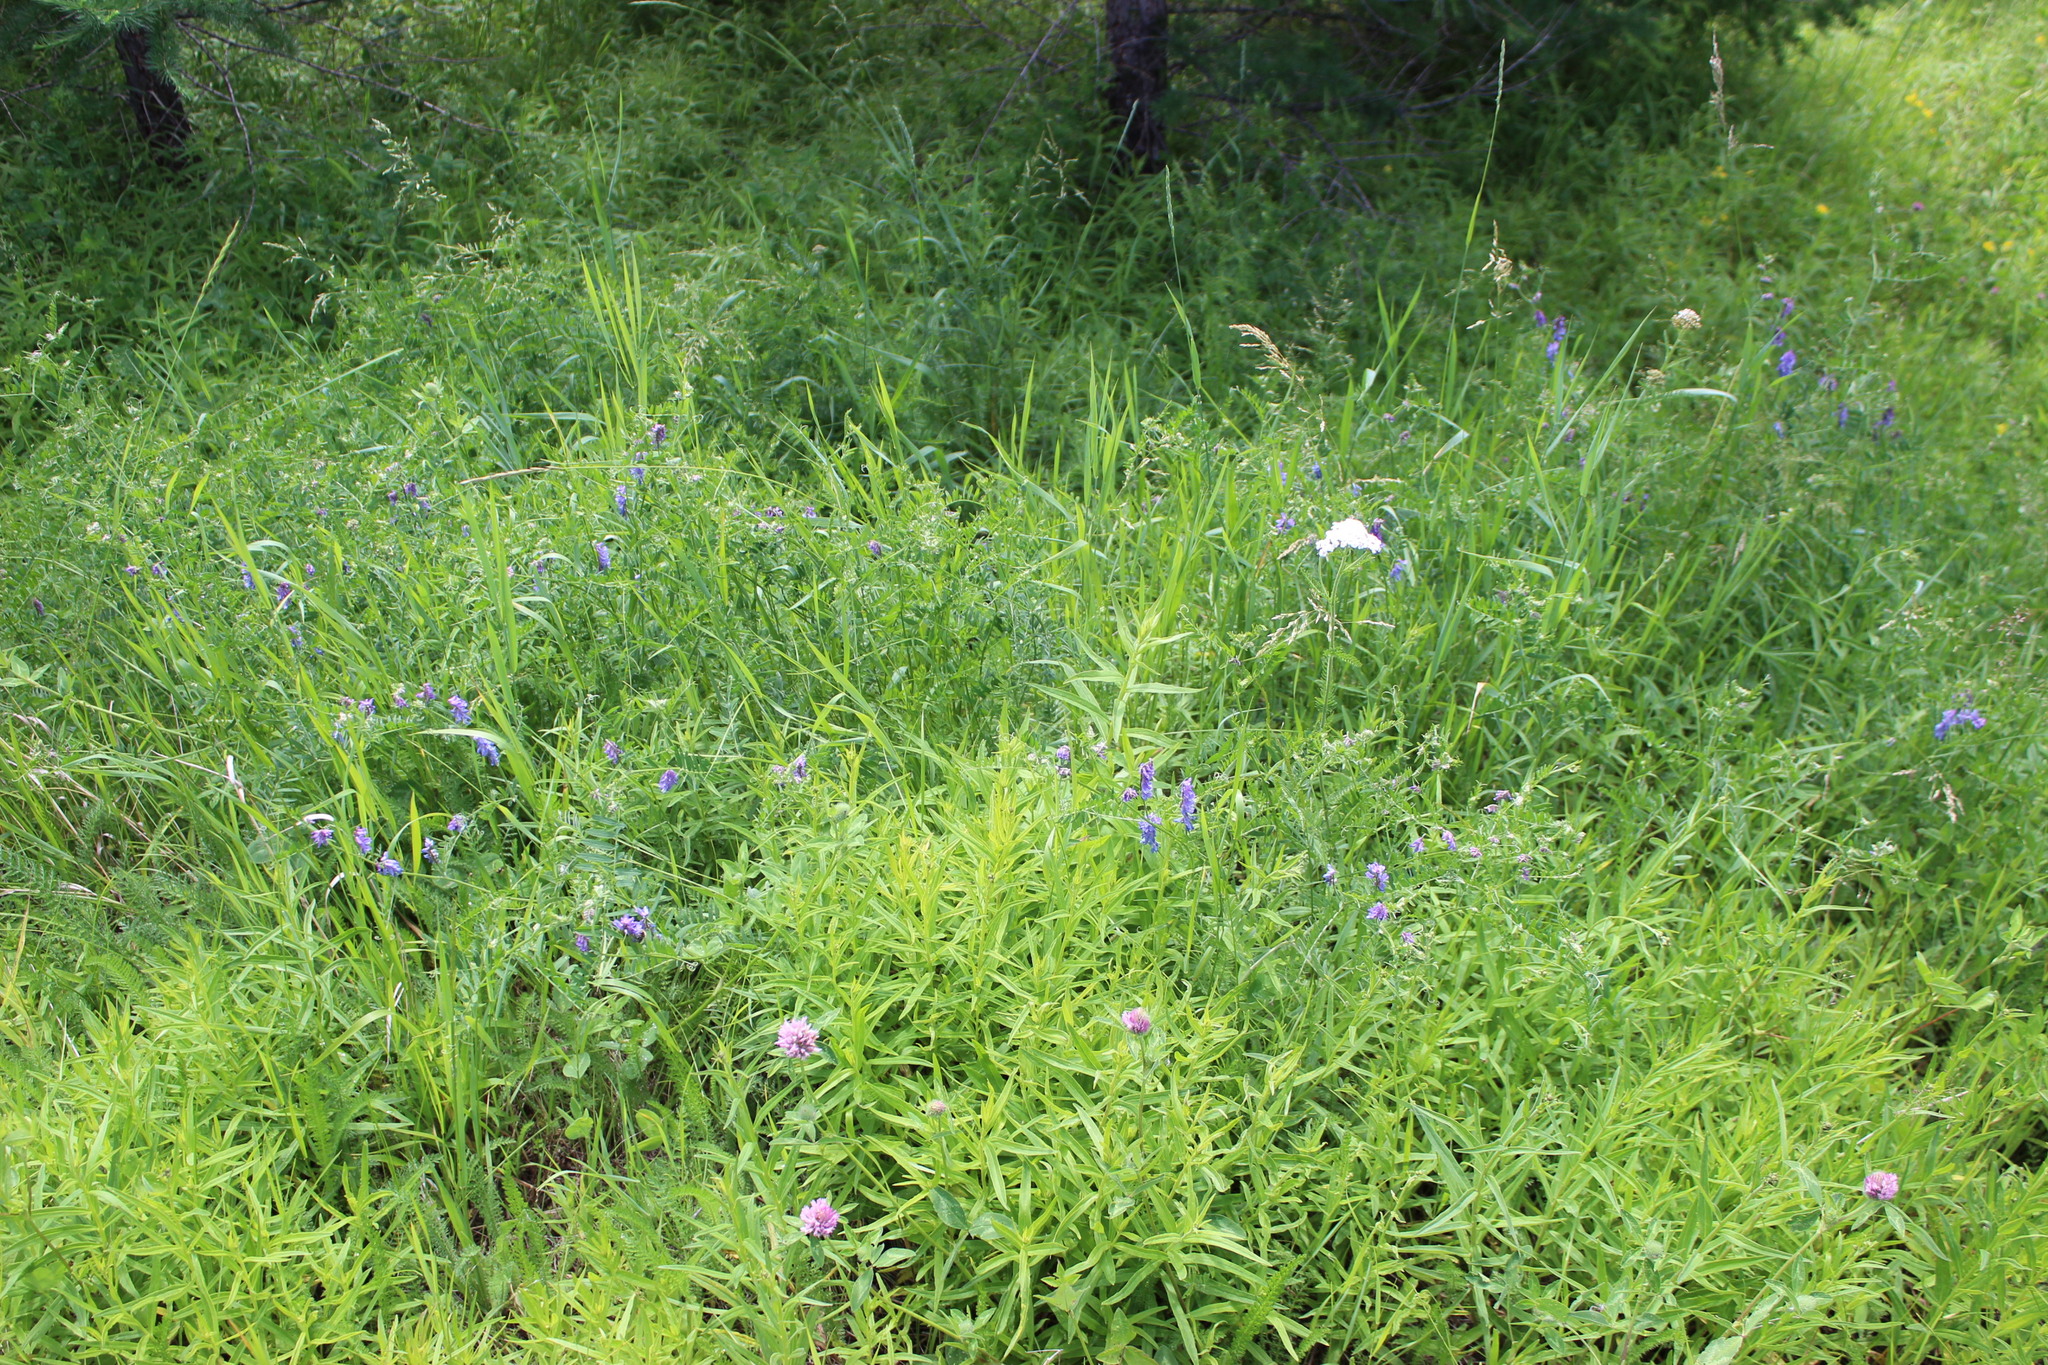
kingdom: Plantae
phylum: Tracheophyta
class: Magnoliopsida
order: Fabales
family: Fabaceae
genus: Vicia
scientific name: Vicia cracca
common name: Bird vetch
